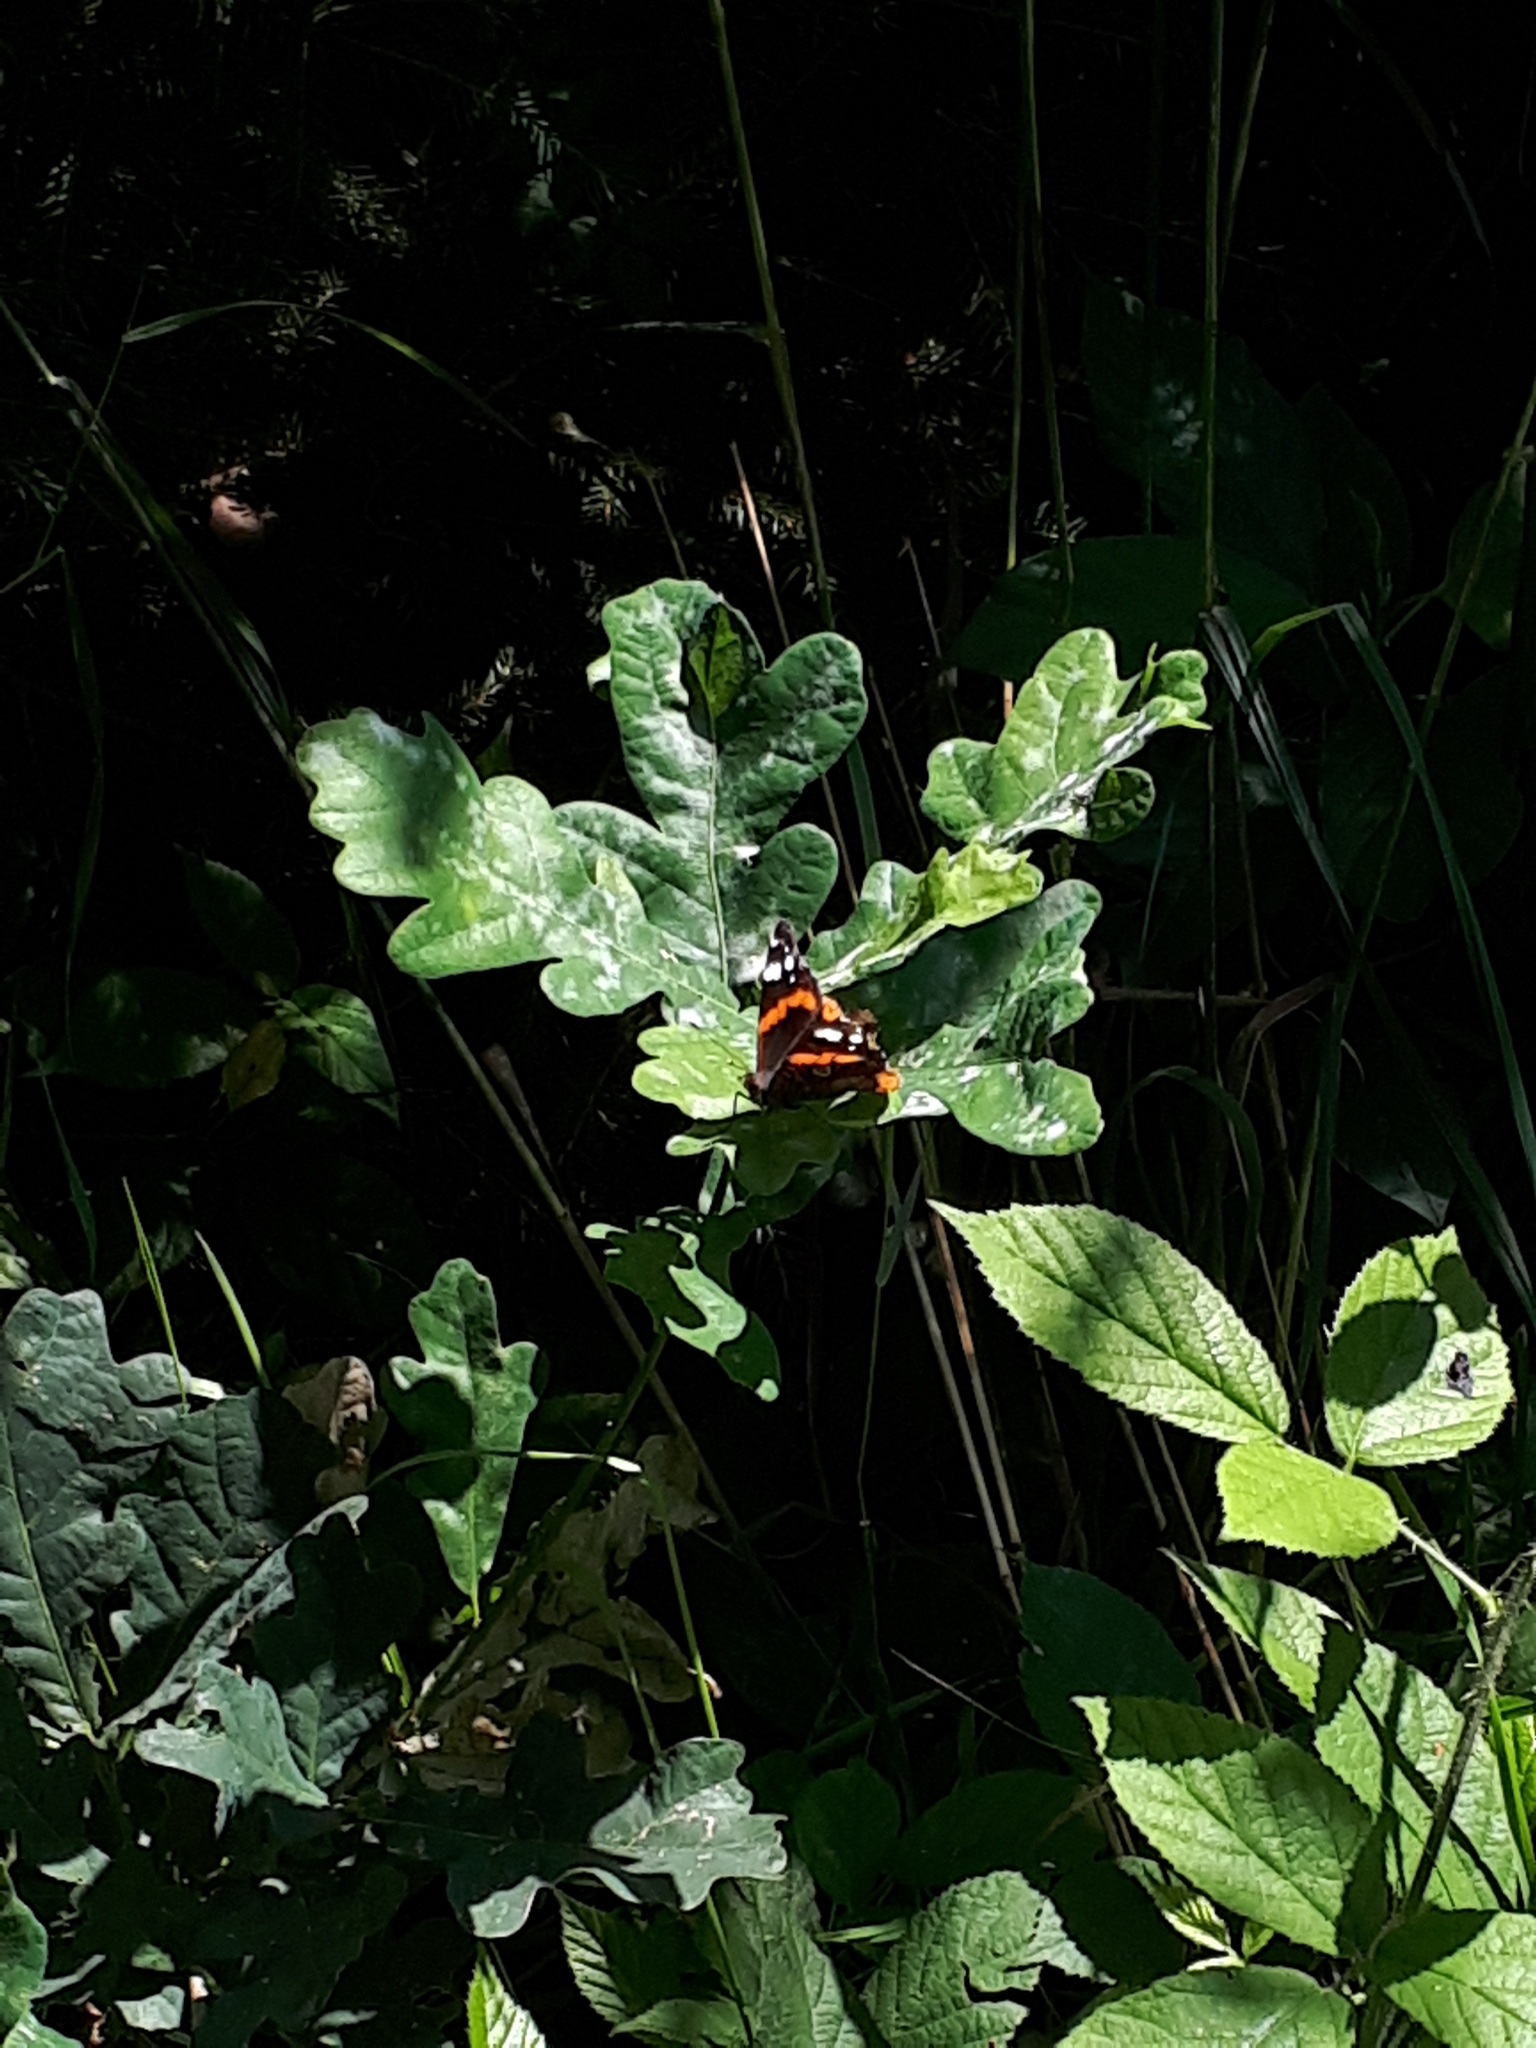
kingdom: Animalia
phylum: Arthropoda
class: Insecta
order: Lepidoptera
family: Nymphalidae
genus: Vanessa
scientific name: Vanessa atalanta
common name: Red admiral
